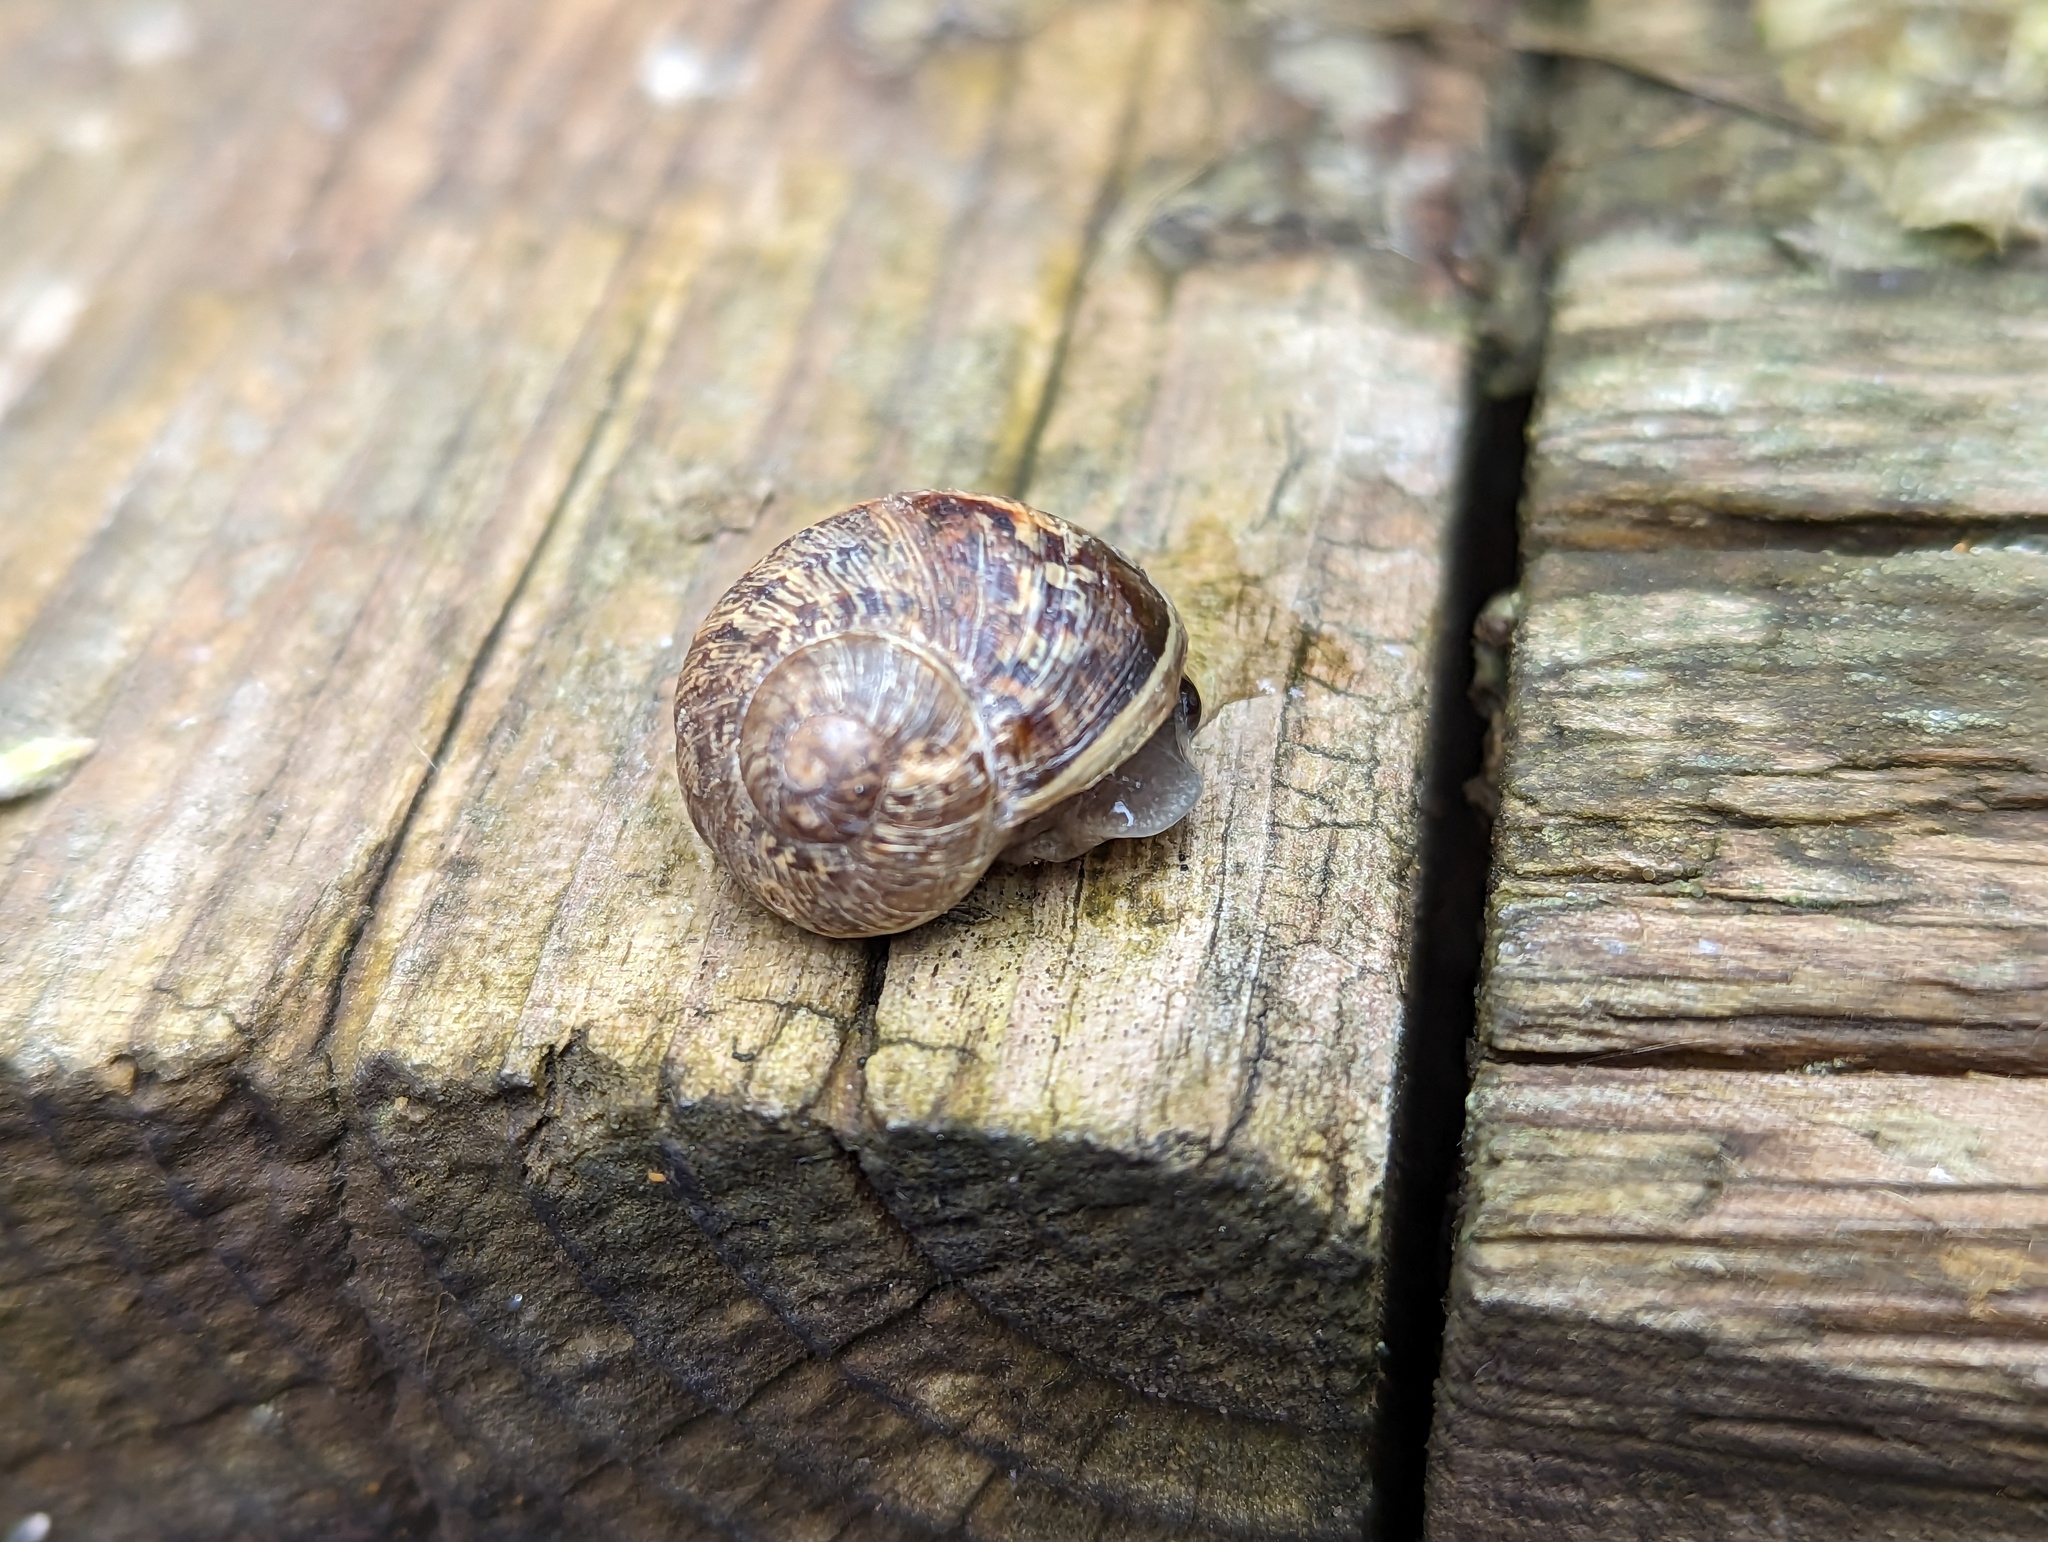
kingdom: Animalia
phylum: Mollusca
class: Gastropoda
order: Stylommatophora
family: Helicidae
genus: Cornu
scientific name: Cornu aspersum
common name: Brown garden snail
